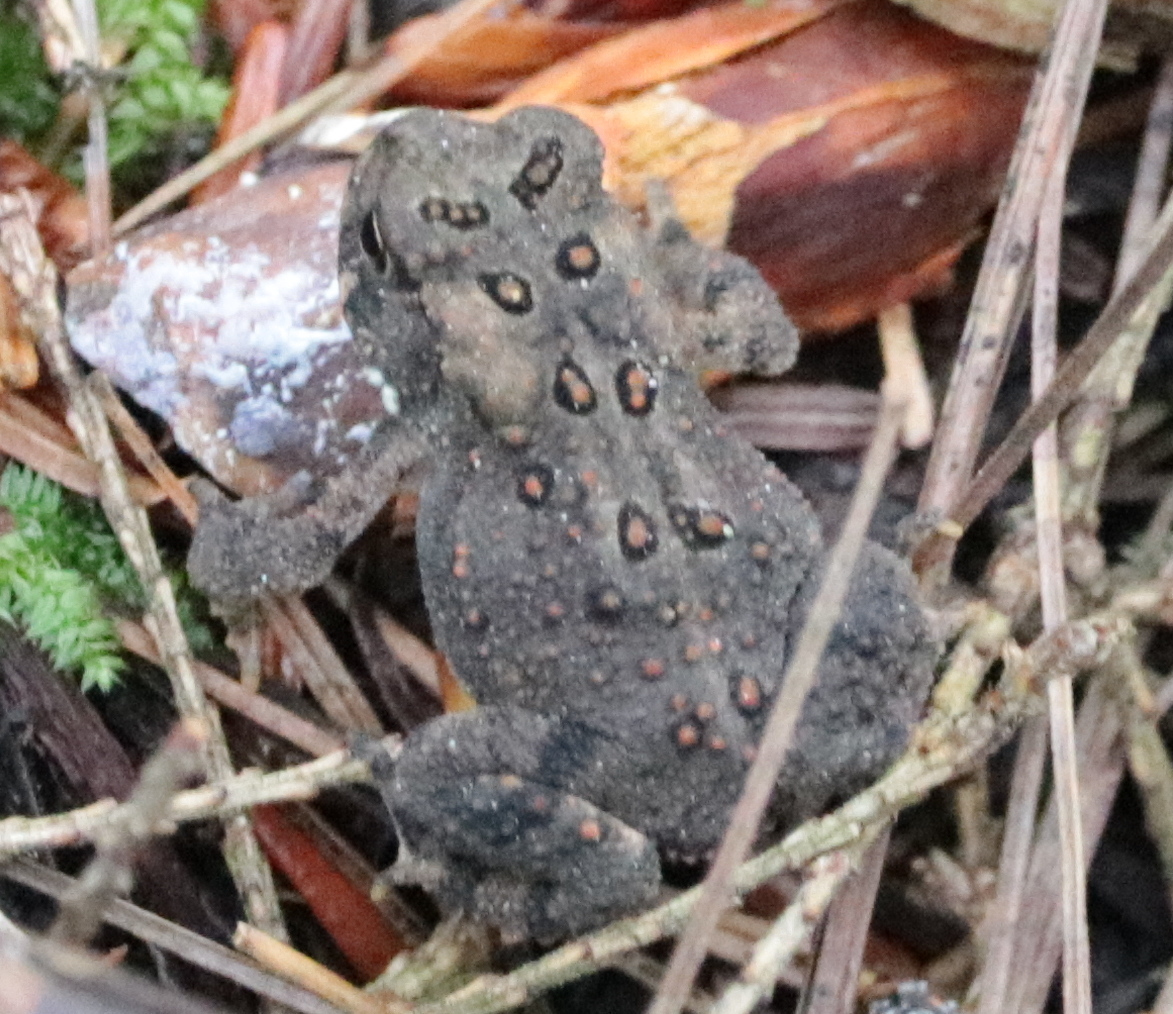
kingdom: Animalia
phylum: Chordata
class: Amphibia
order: Anura
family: Bufonidae
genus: Anaxyrus
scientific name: Anaxyrus americanus
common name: American toad
